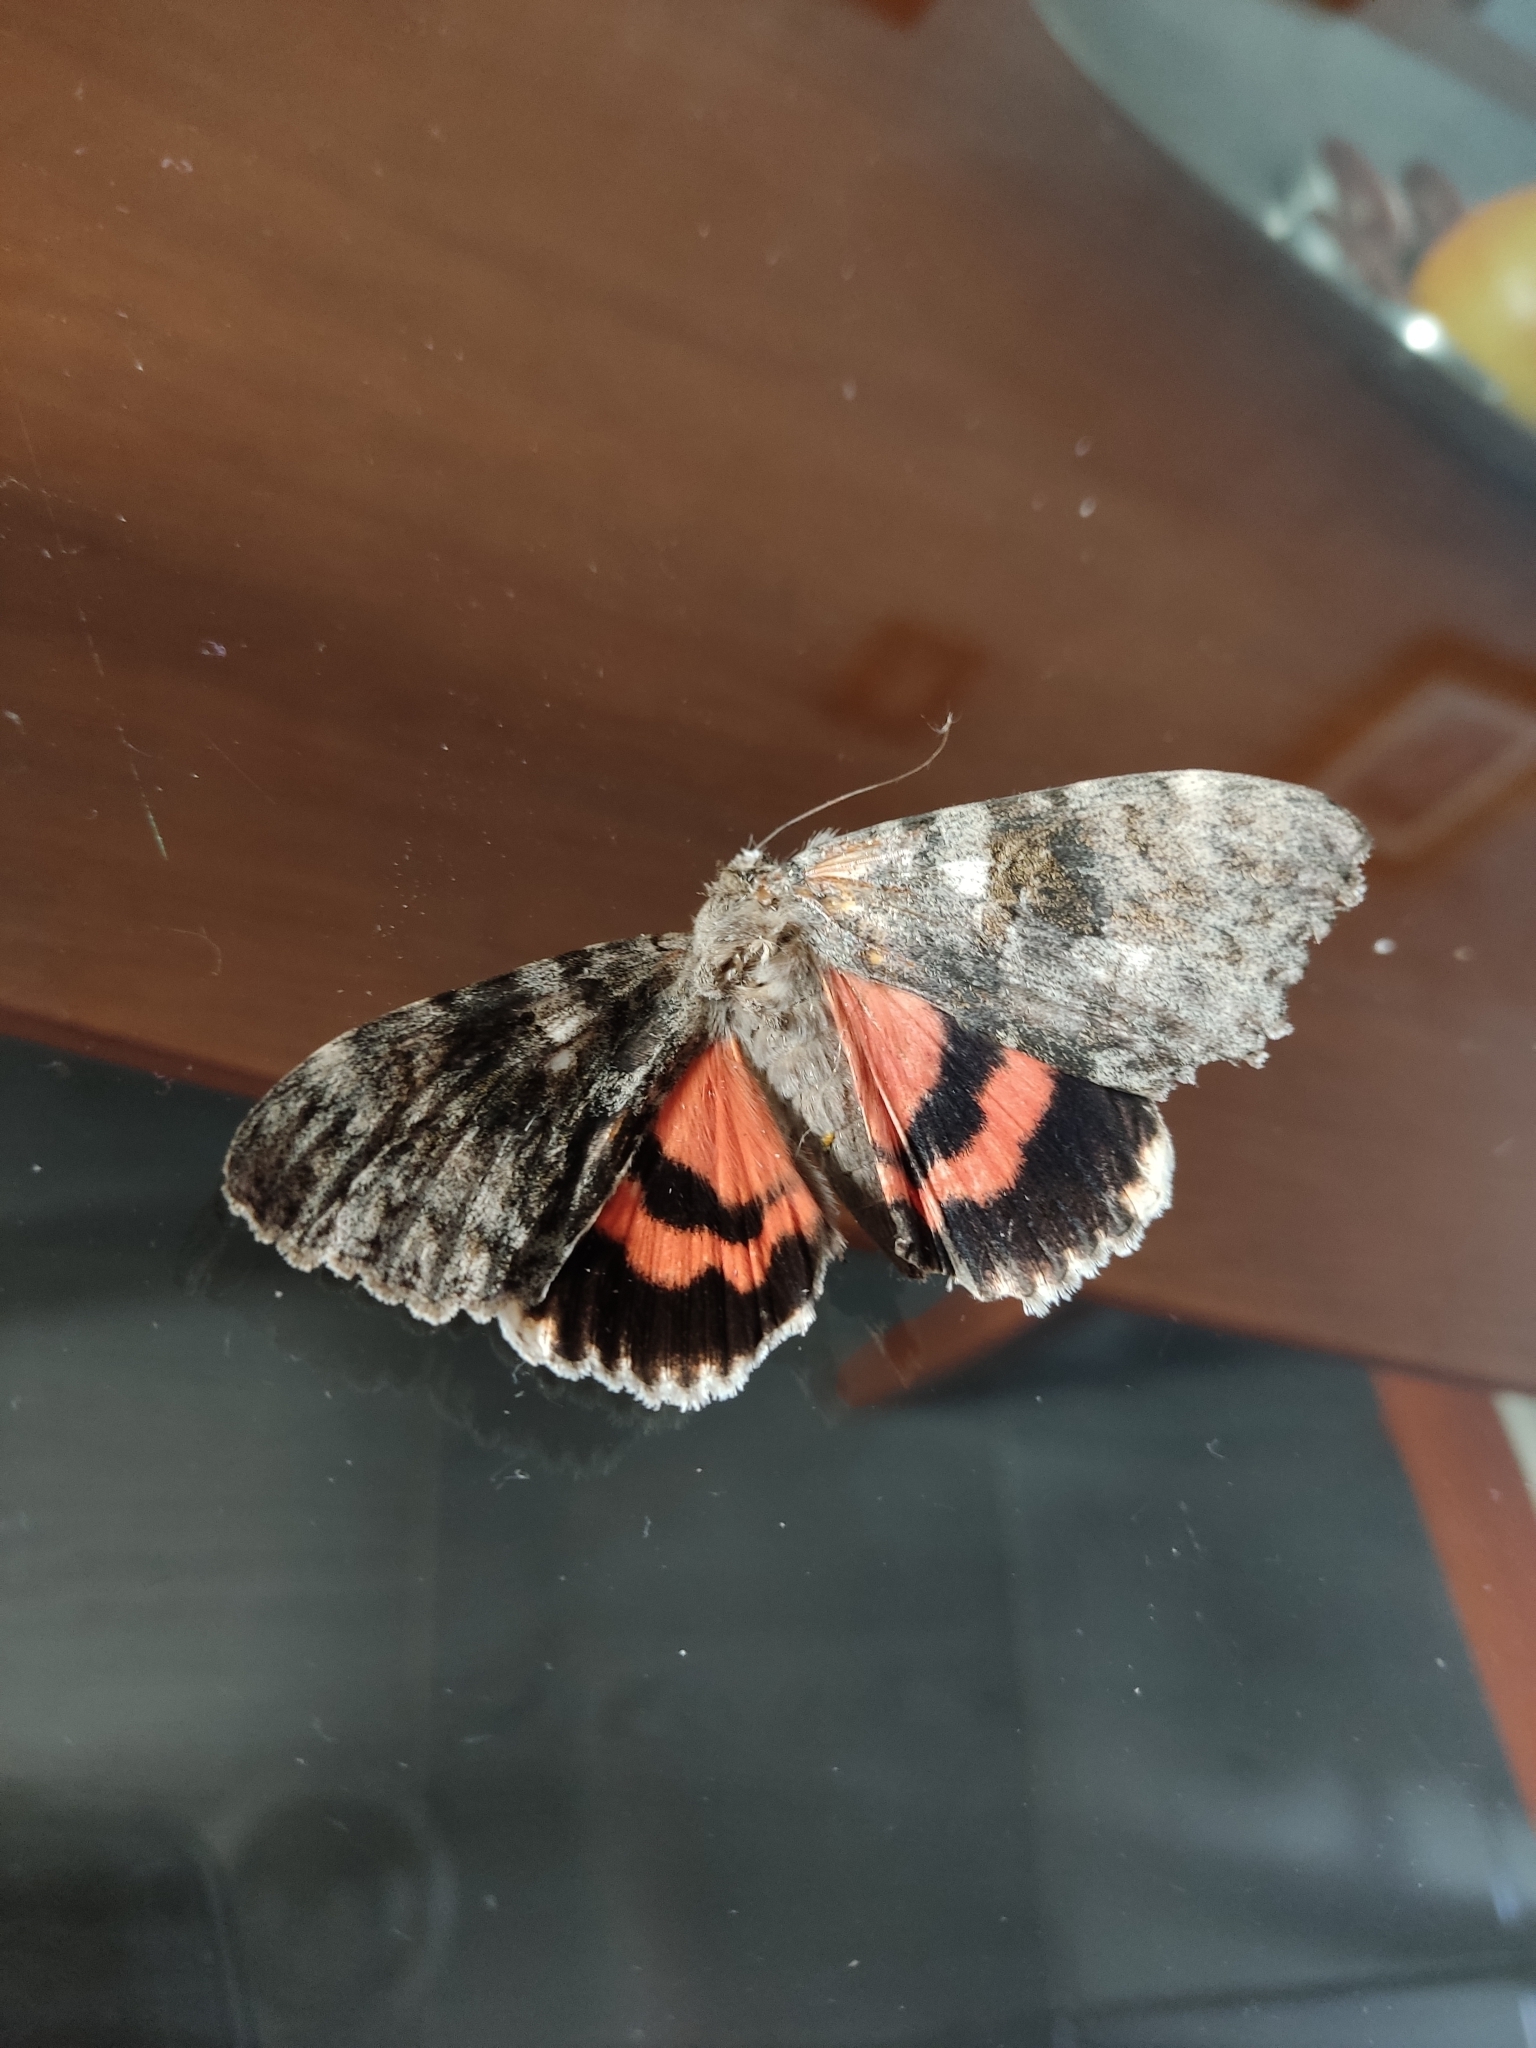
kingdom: Animalia
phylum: Arthropoda
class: Insecta
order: Lepidoptera
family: Erebidae
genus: Catocala
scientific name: Catocala electilis
